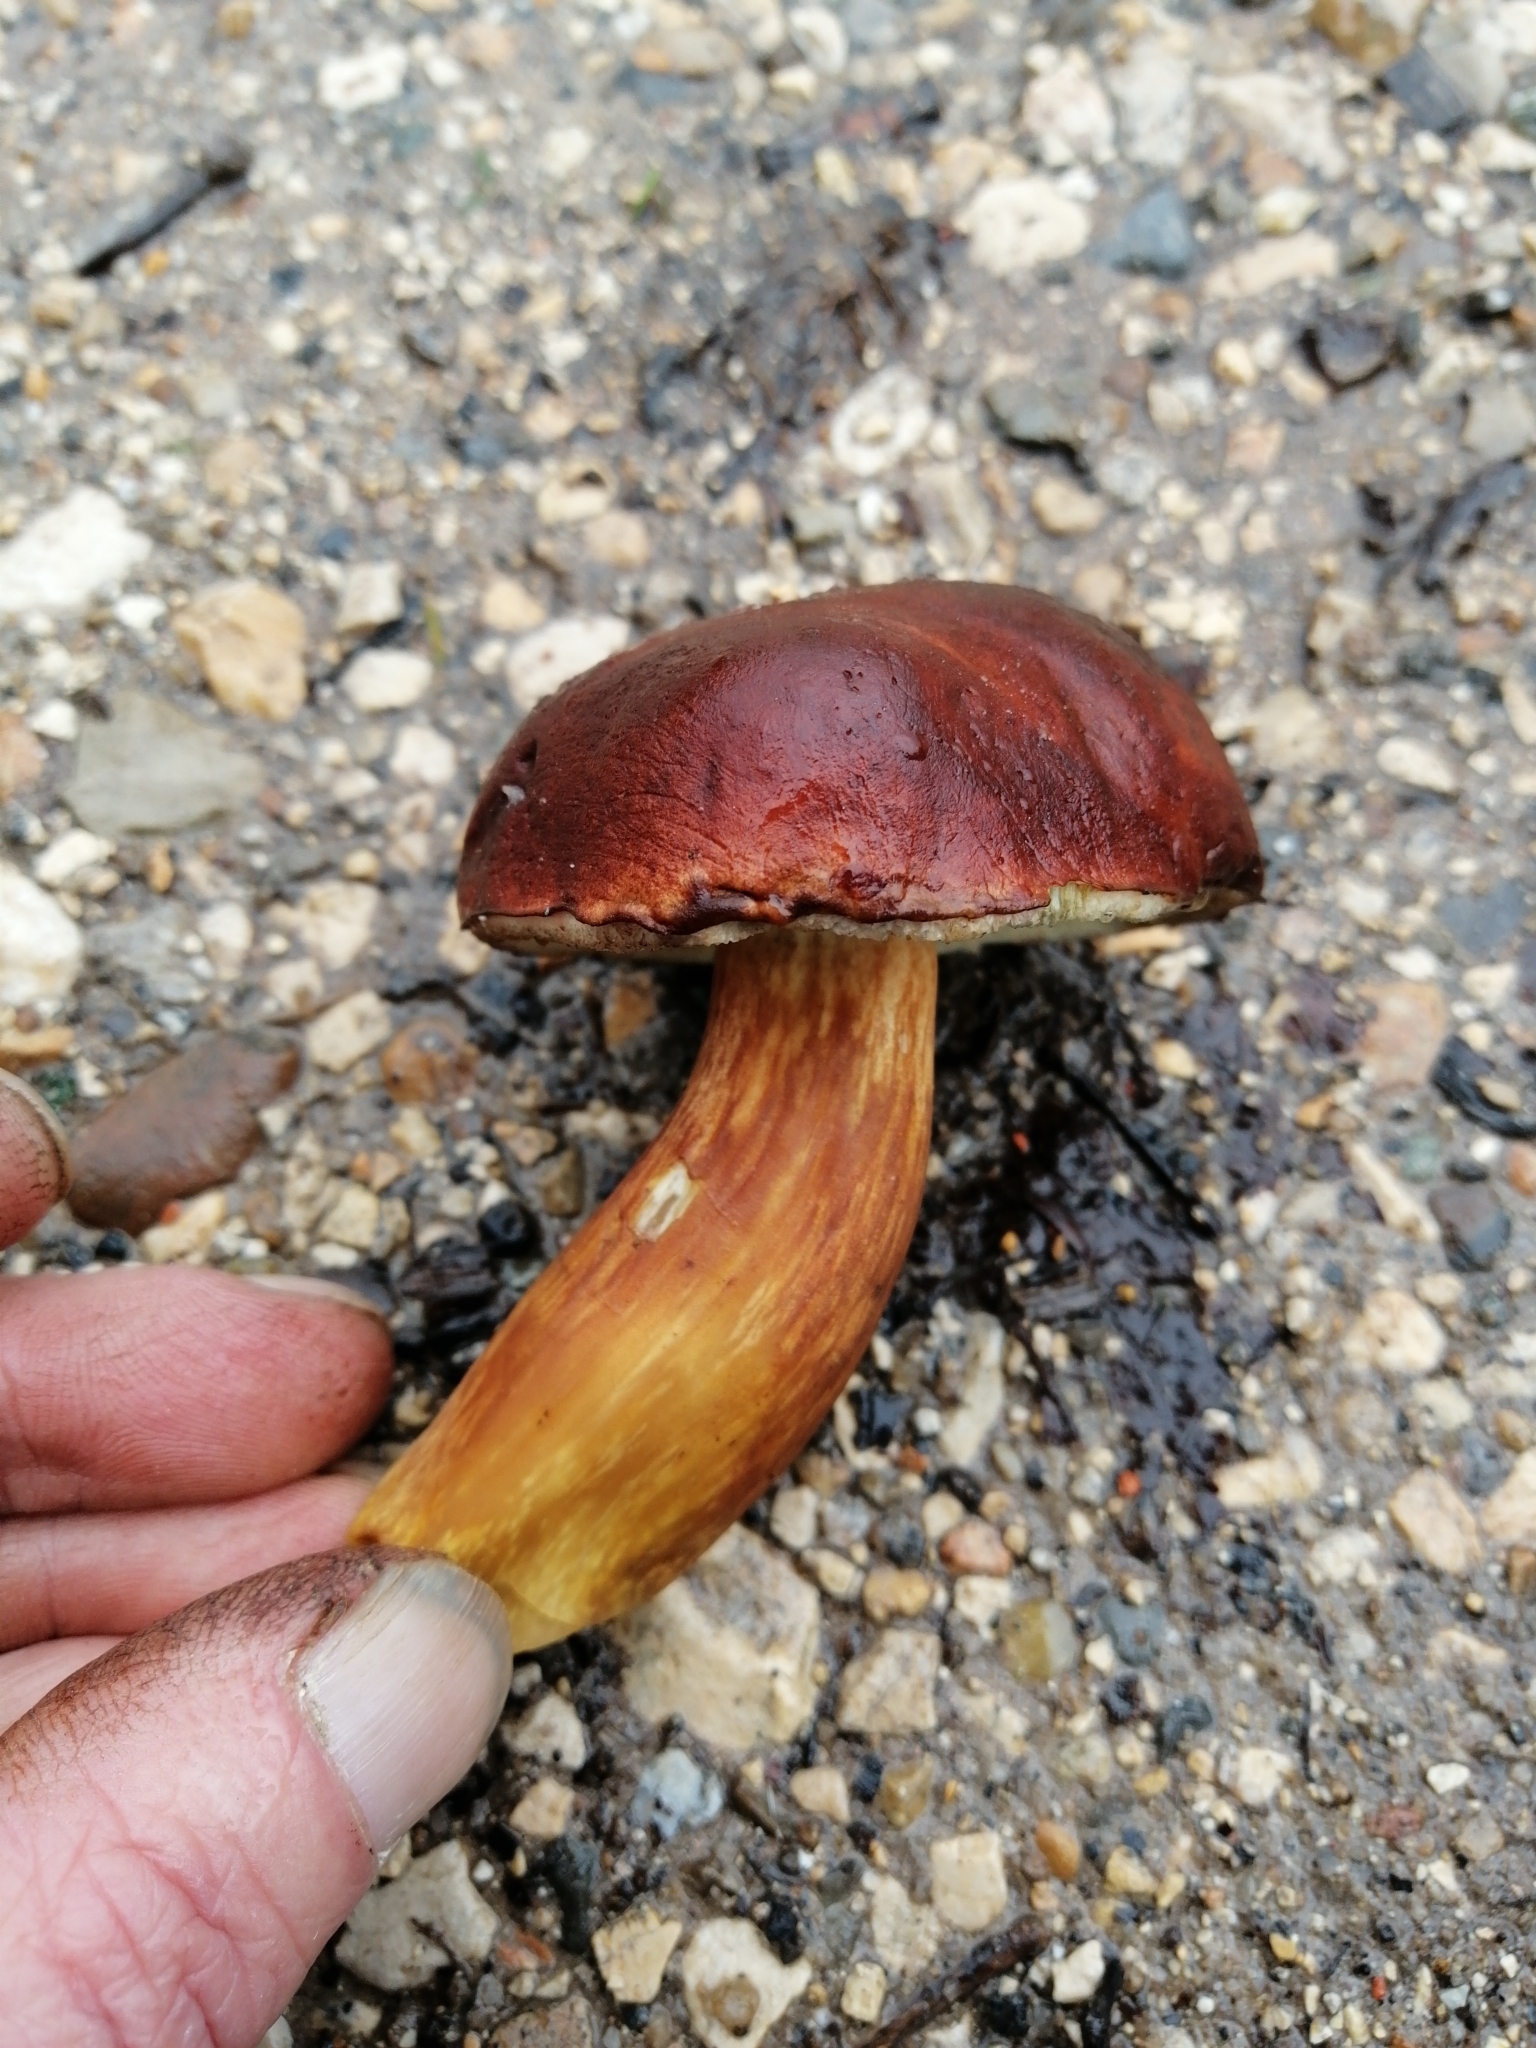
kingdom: Fungi
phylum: Basidiomycota
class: Agaricomycetes
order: Boletales
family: Boletaceae
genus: Imleria
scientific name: Imleria badia
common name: Bay bolete
